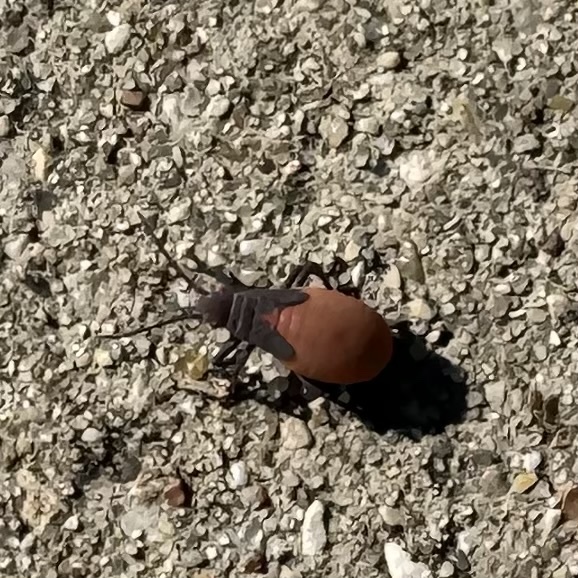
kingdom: Animalia
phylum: Arthropoda
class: Insecta
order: Hemiptera
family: Rhopalidae
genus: Jadera
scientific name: Jadera haematoloma
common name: Red-shouldered bug
